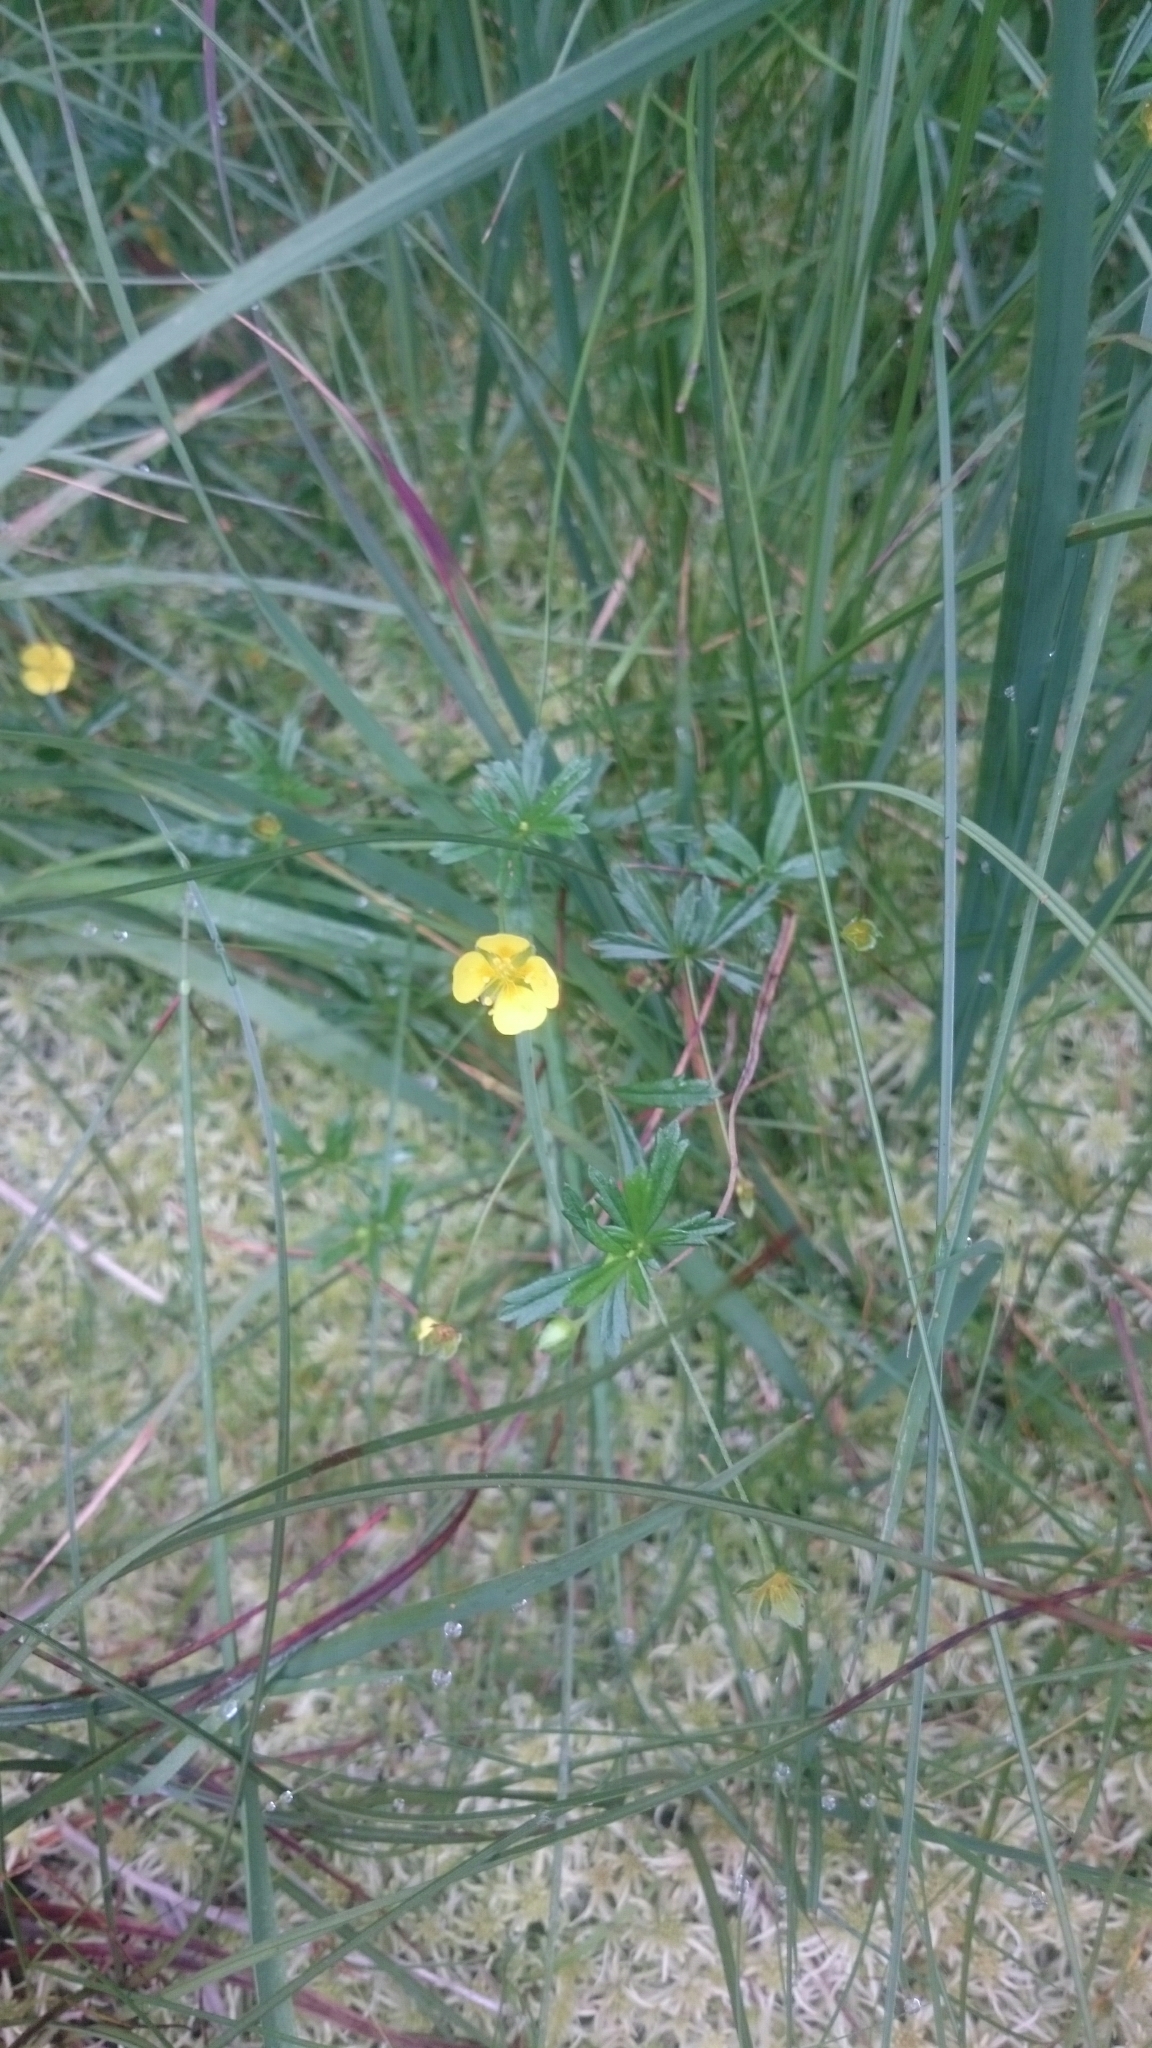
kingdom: Plantae
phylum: Tracheophyta
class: Magnoliopsida
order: Rosales
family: Rosaceae
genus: Potentilla
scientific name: Potentilla erecta
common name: Tormentil
